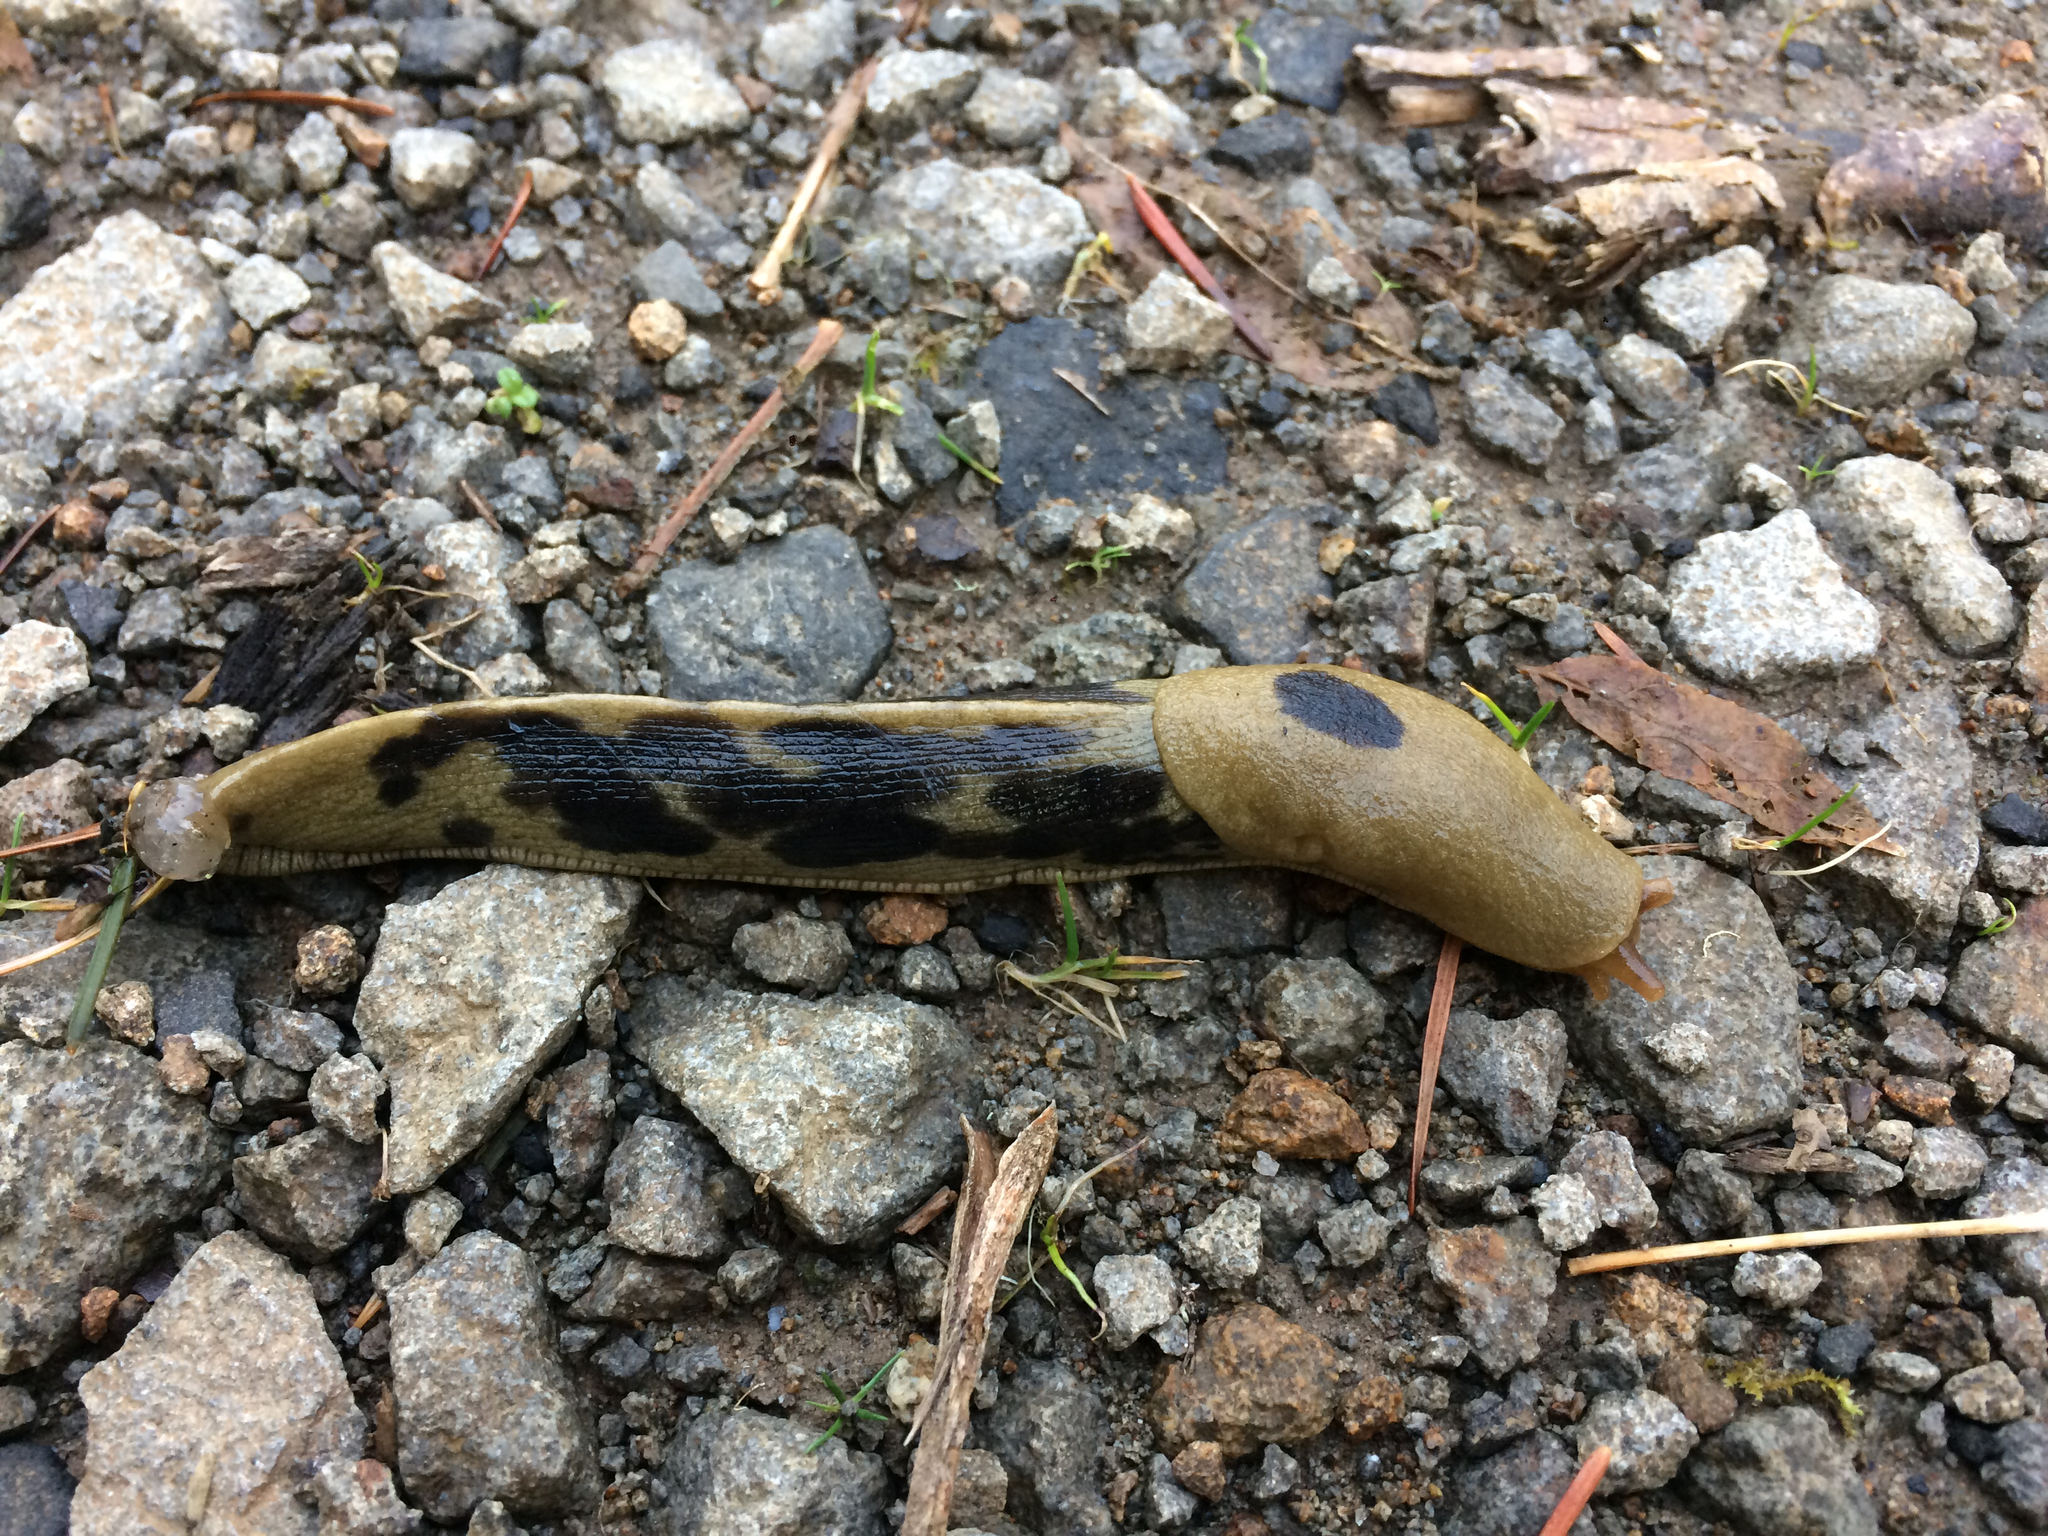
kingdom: Animalia
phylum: Mollusca
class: Gastropoda
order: Stylommatophora
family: Ariolimacidae
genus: Ariolimax
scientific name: Ariolimax columbianus
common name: Pacific banana slug
